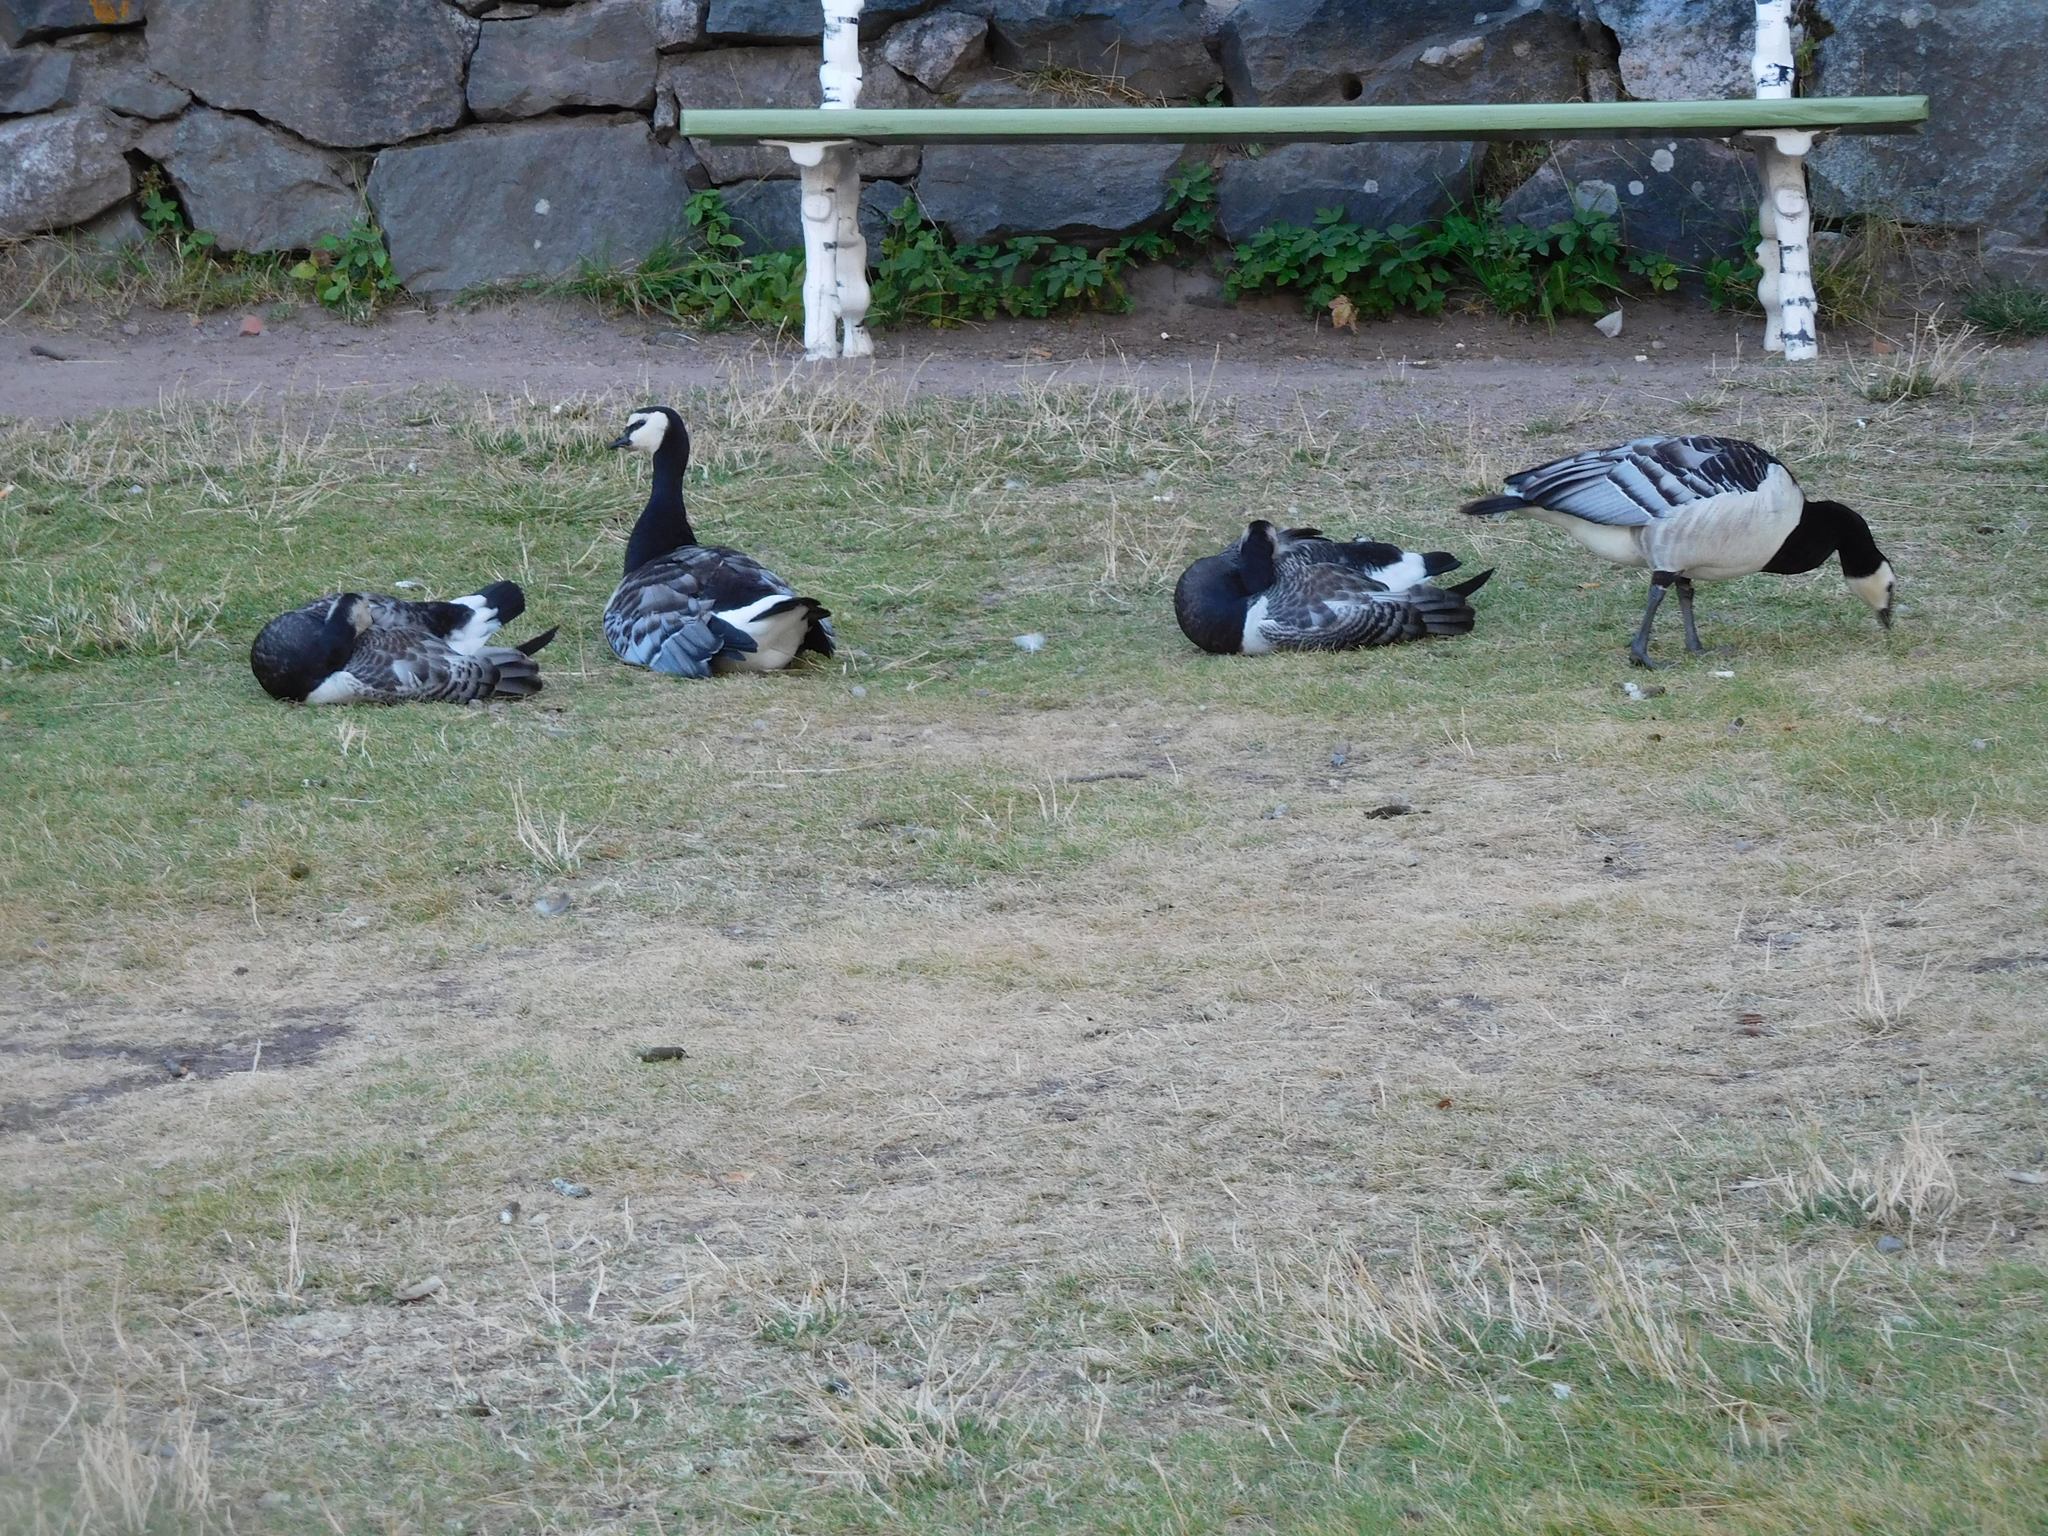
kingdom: Animalia
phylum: Chordata
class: Aves
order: Anseriformes
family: Anatidae
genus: Branta
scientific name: Branta leucopsis
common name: Barnacle goose
